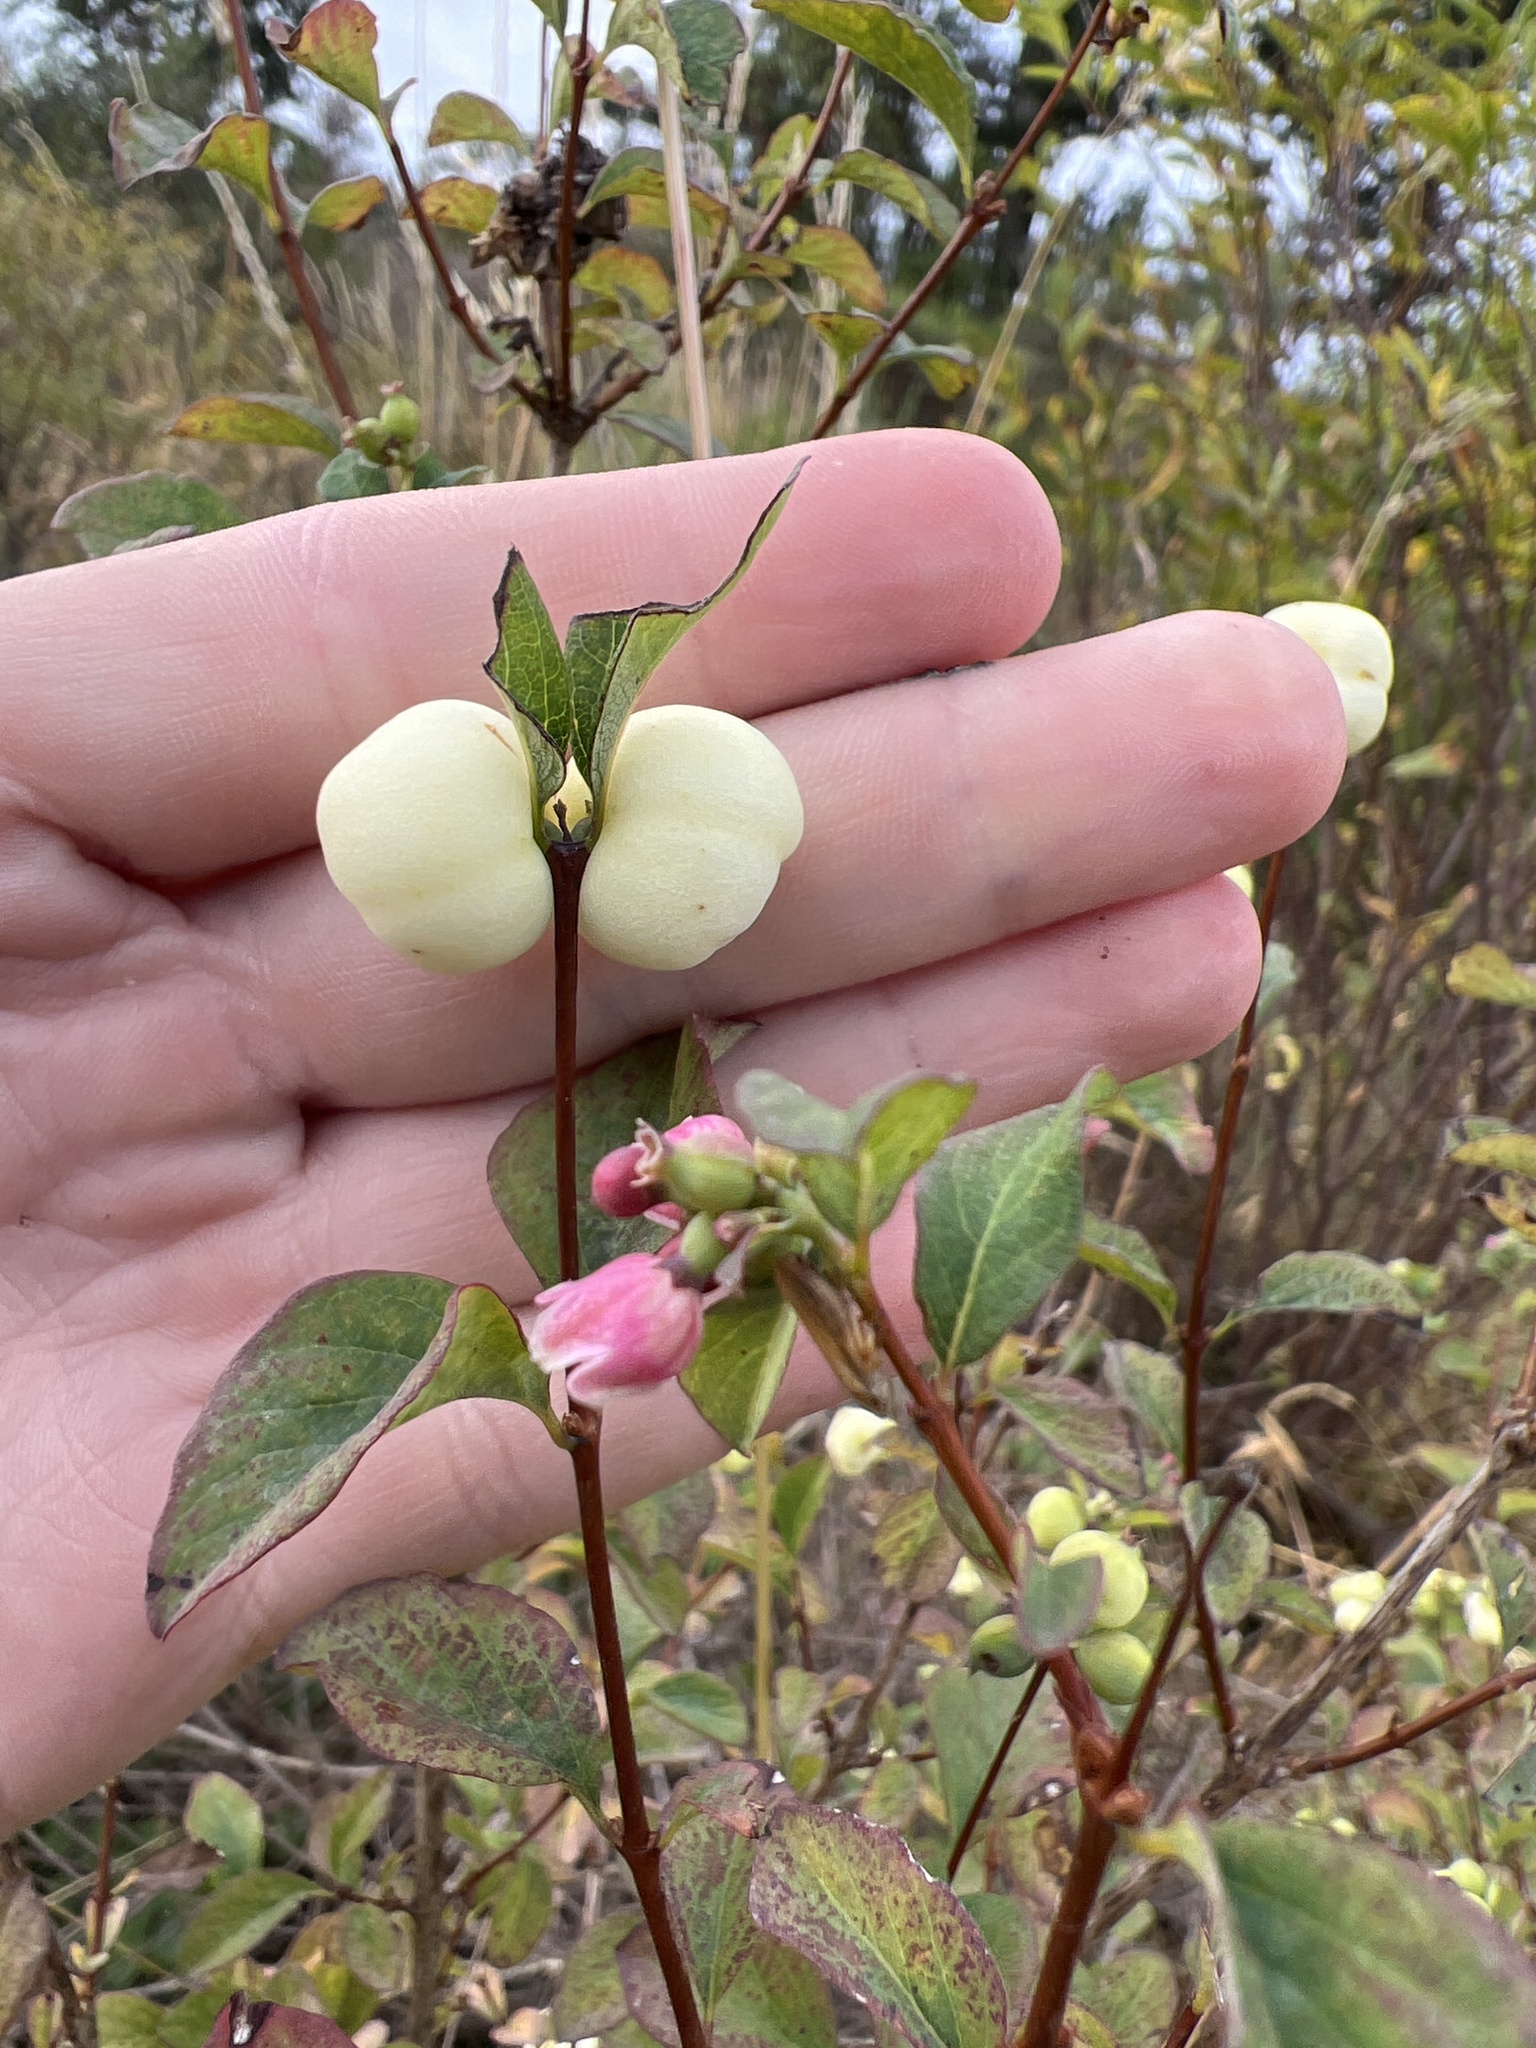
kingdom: Plantae
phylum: Tracheophyta
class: Magnoliopsida
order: Dipsacales
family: Caprifoliaceae
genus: Symphoricarpos
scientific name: Symphoricarpos albus
